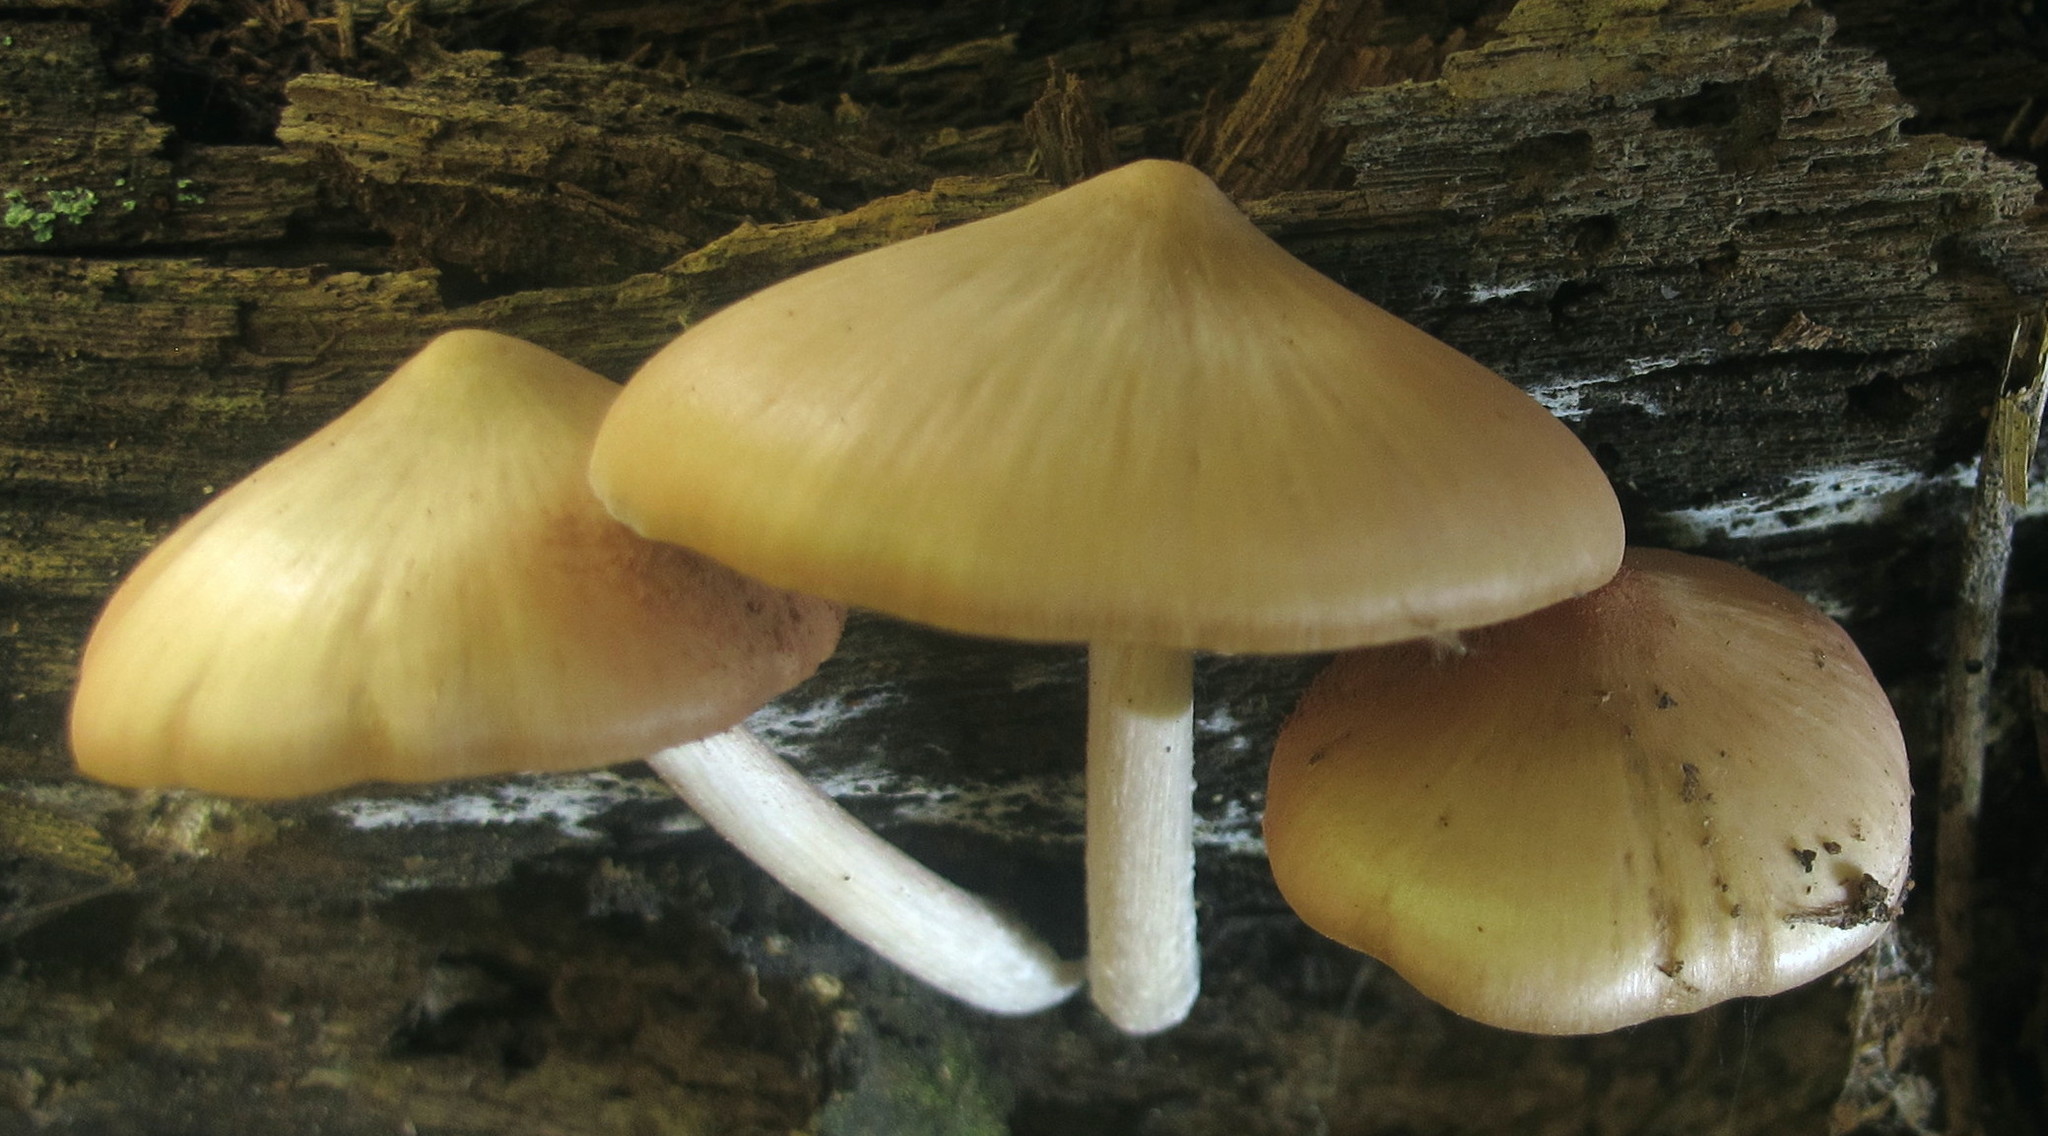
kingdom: Fungi
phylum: Basidiomycota
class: Agaricomycetes
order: Agaricales
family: Psathyrellaceae
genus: Psathyrella
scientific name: Psathyrella conissans
